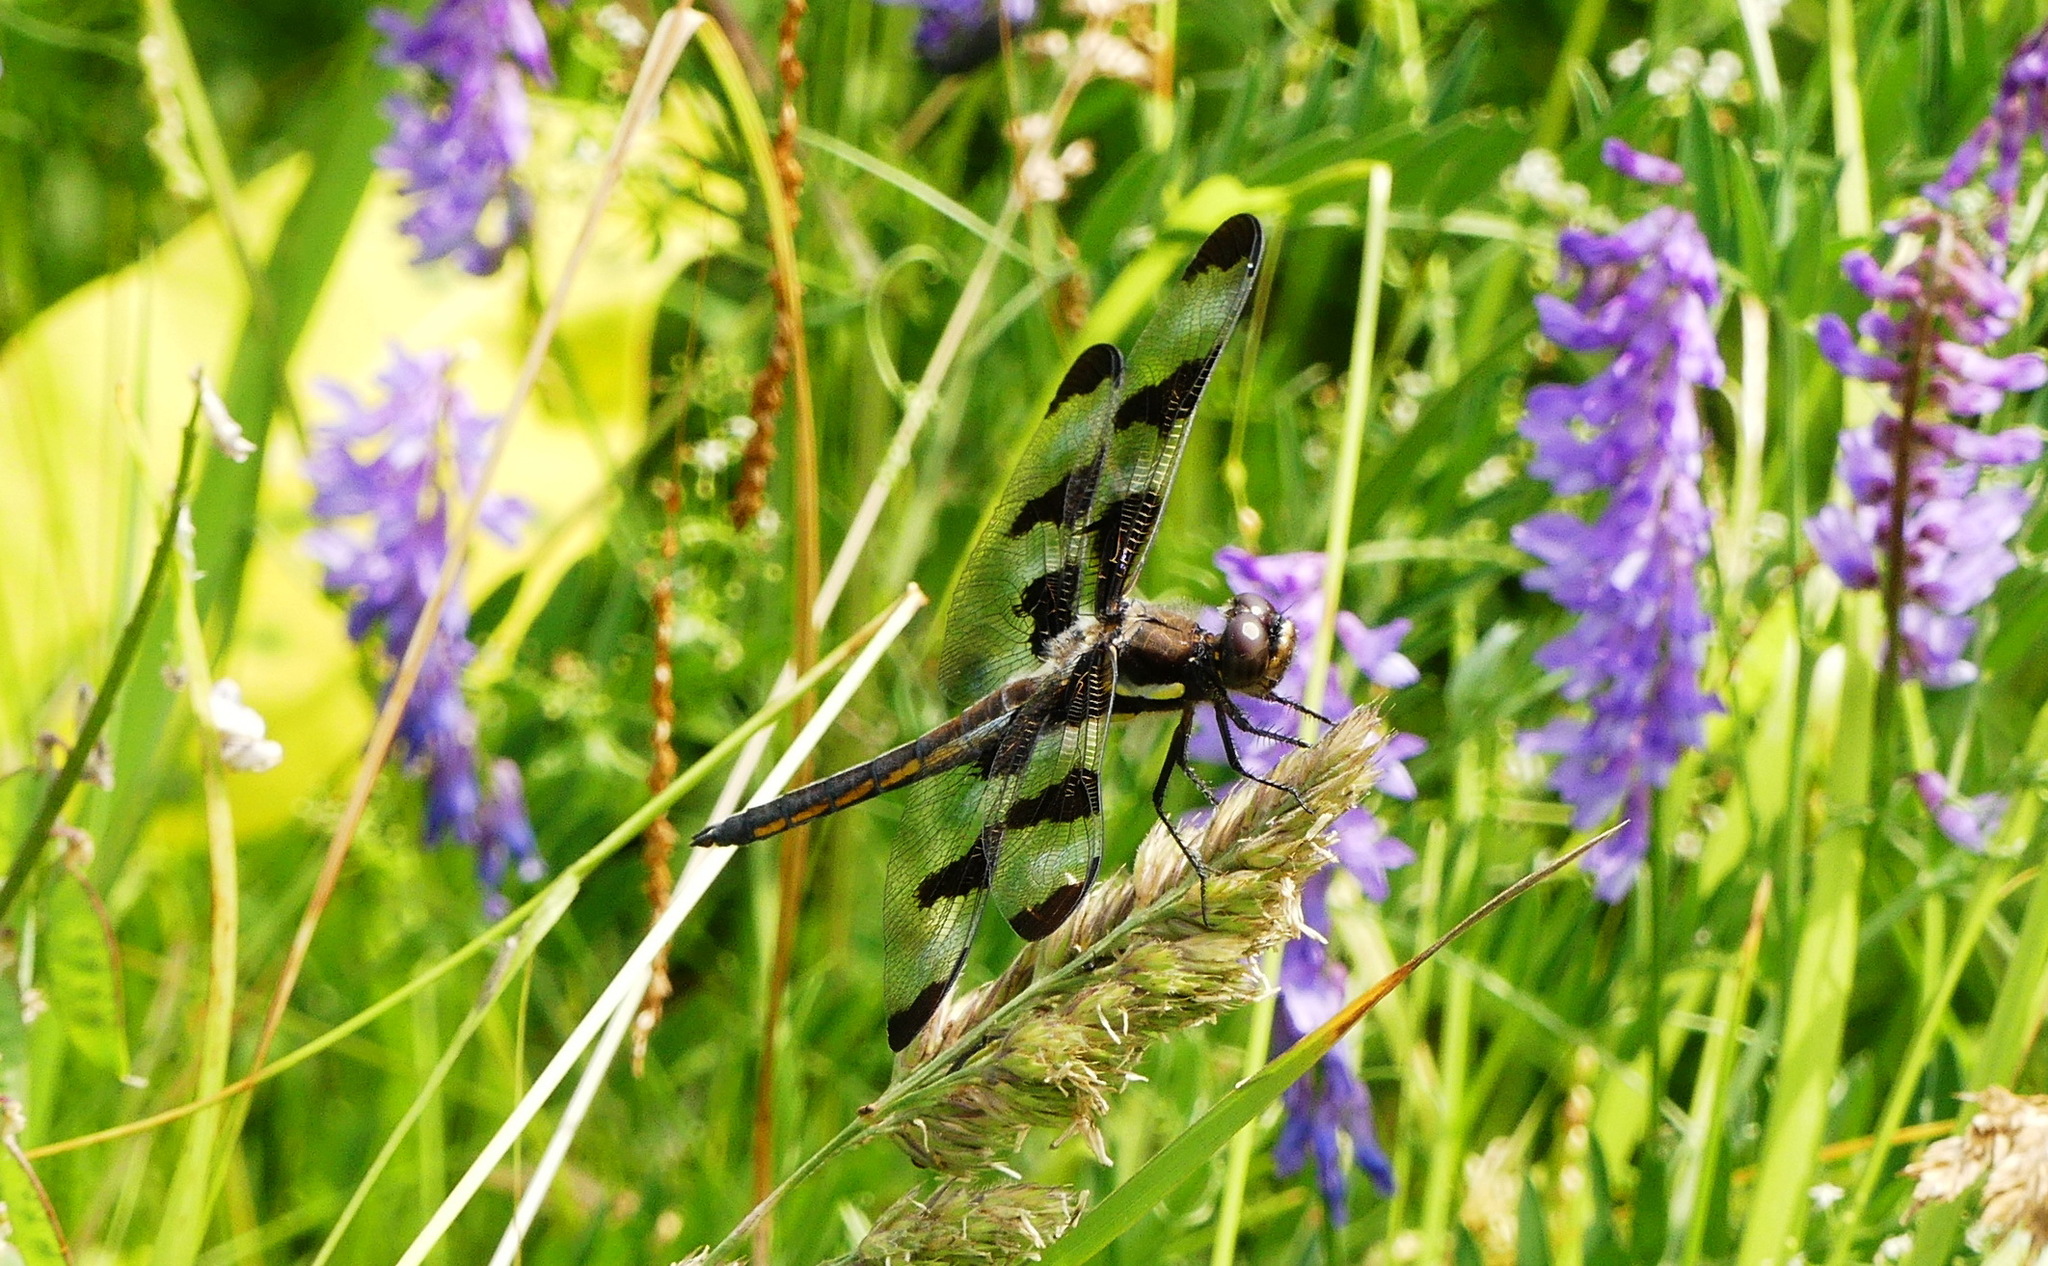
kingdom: Animalia
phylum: Arthropoda
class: Insecta
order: Odonata
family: Libellulidae
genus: Libellula
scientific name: Libellula pulchella
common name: Twelve-spotted skimmer
